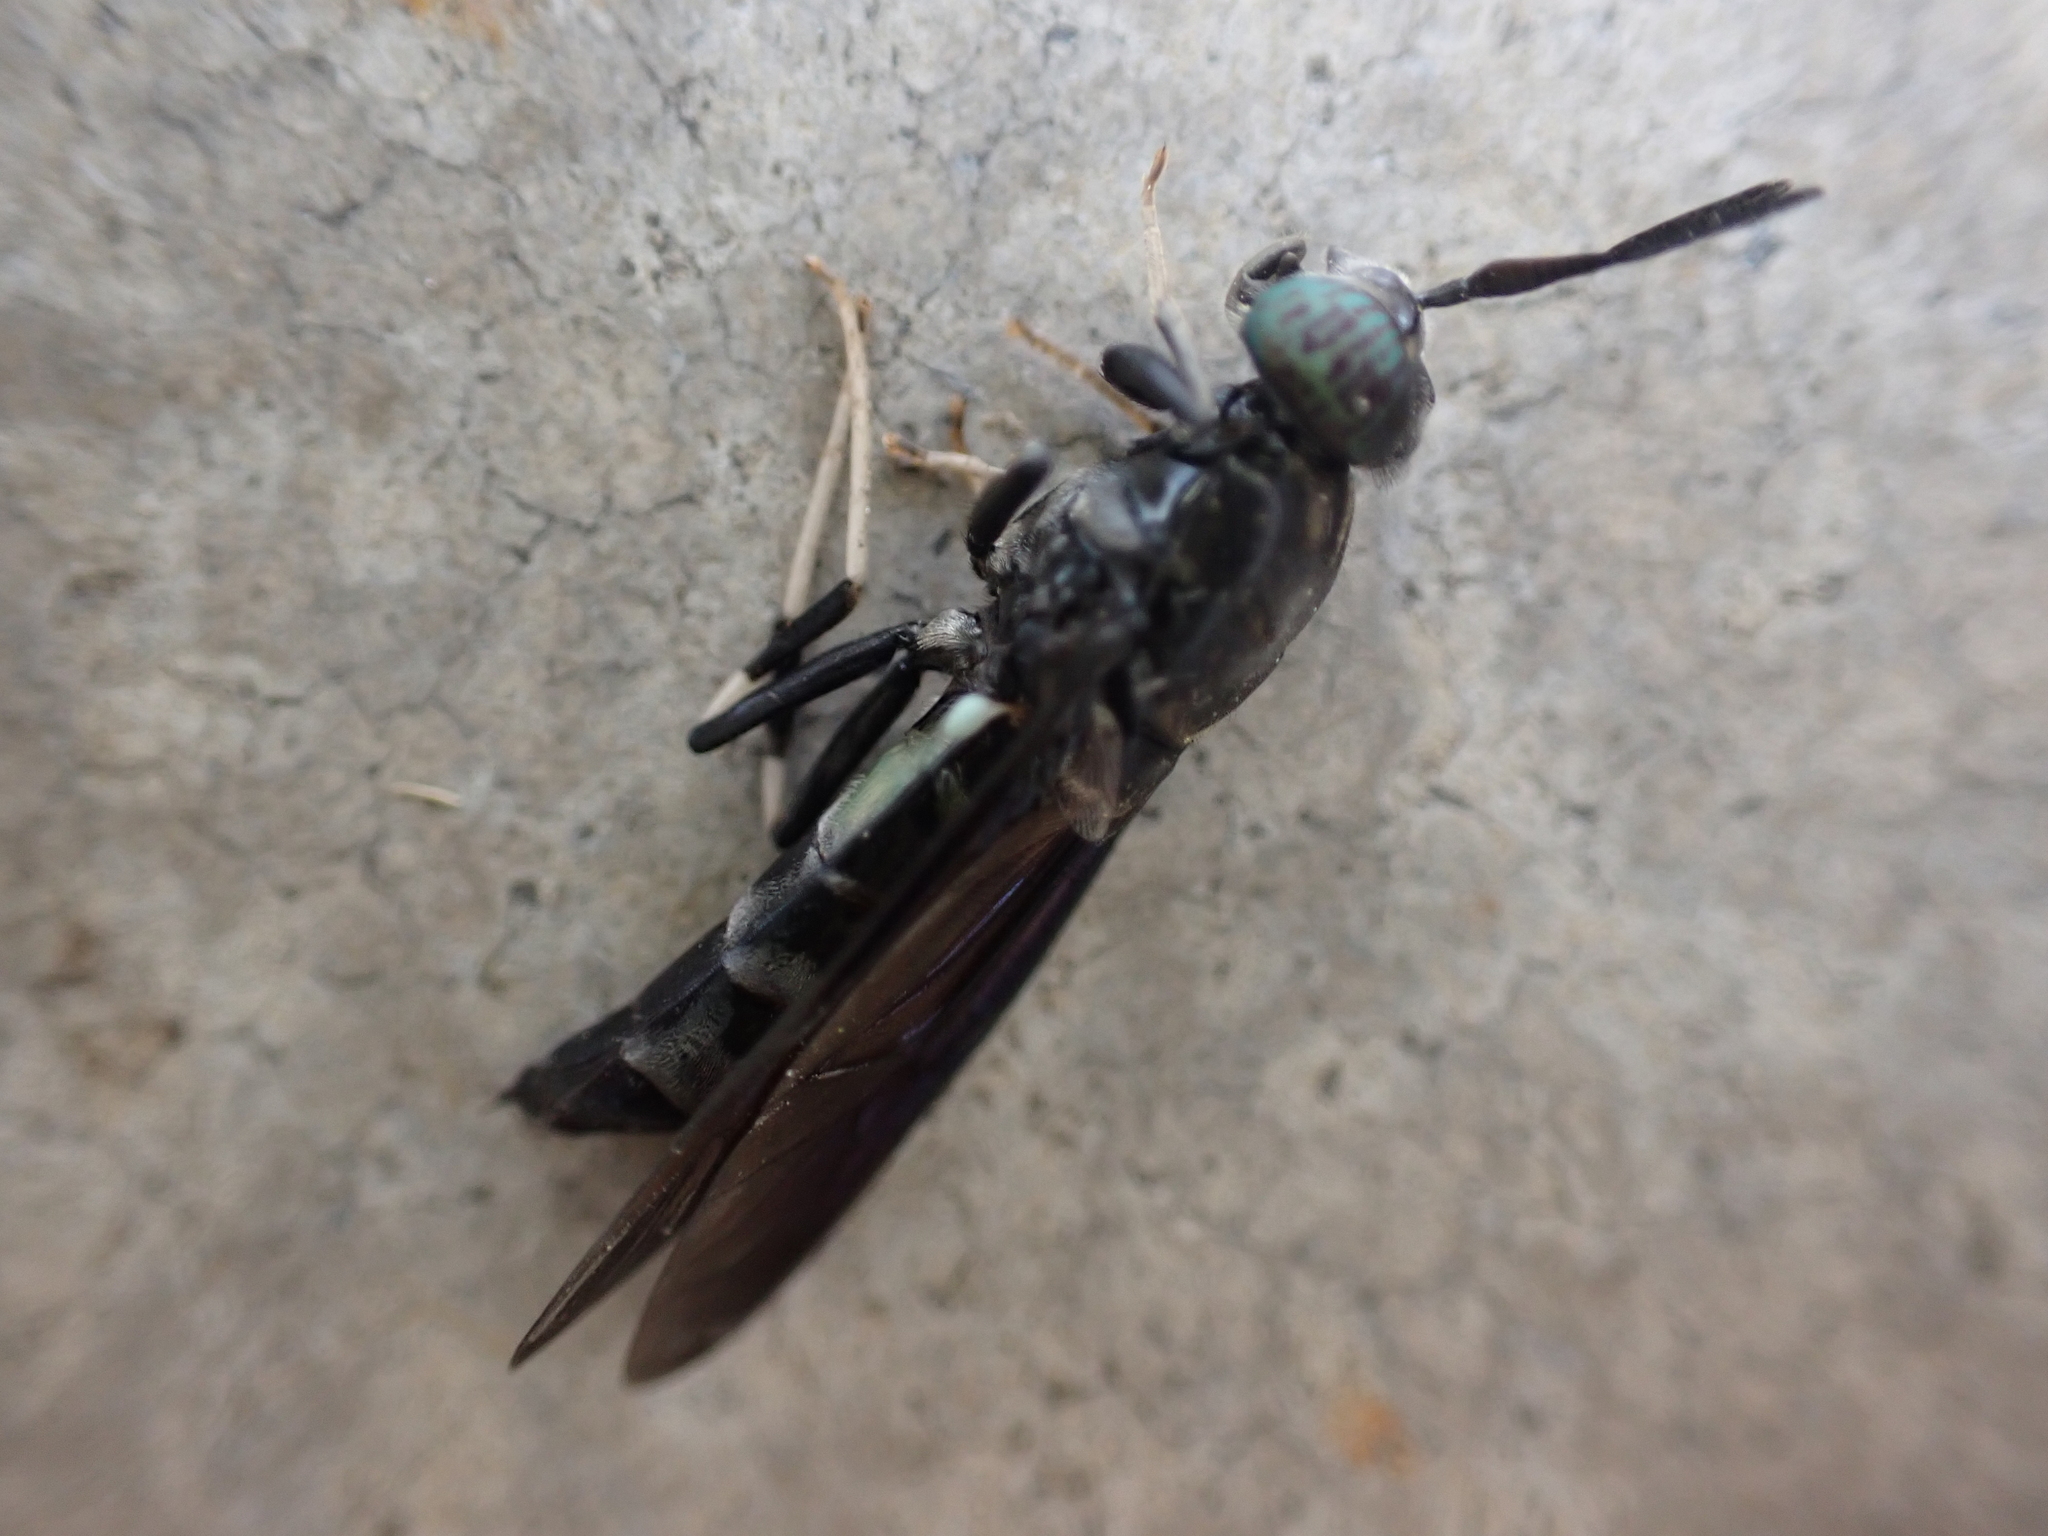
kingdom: Animalia
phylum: Arthropoda
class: Insecta
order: Diptera
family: Stratiomyidae
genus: Hermetia
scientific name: Hermetia illucens
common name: Black soldier fly
